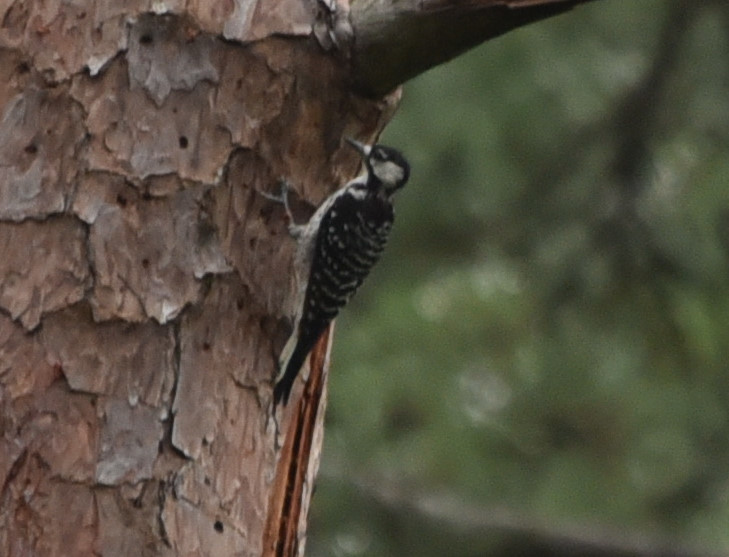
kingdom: Animalia
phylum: Chordata
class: Aves
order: Piciformes
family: Picidae
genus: Leuconotopicus
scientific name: Leuconotopicus borealis
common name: Red-cockaded woodpecker
